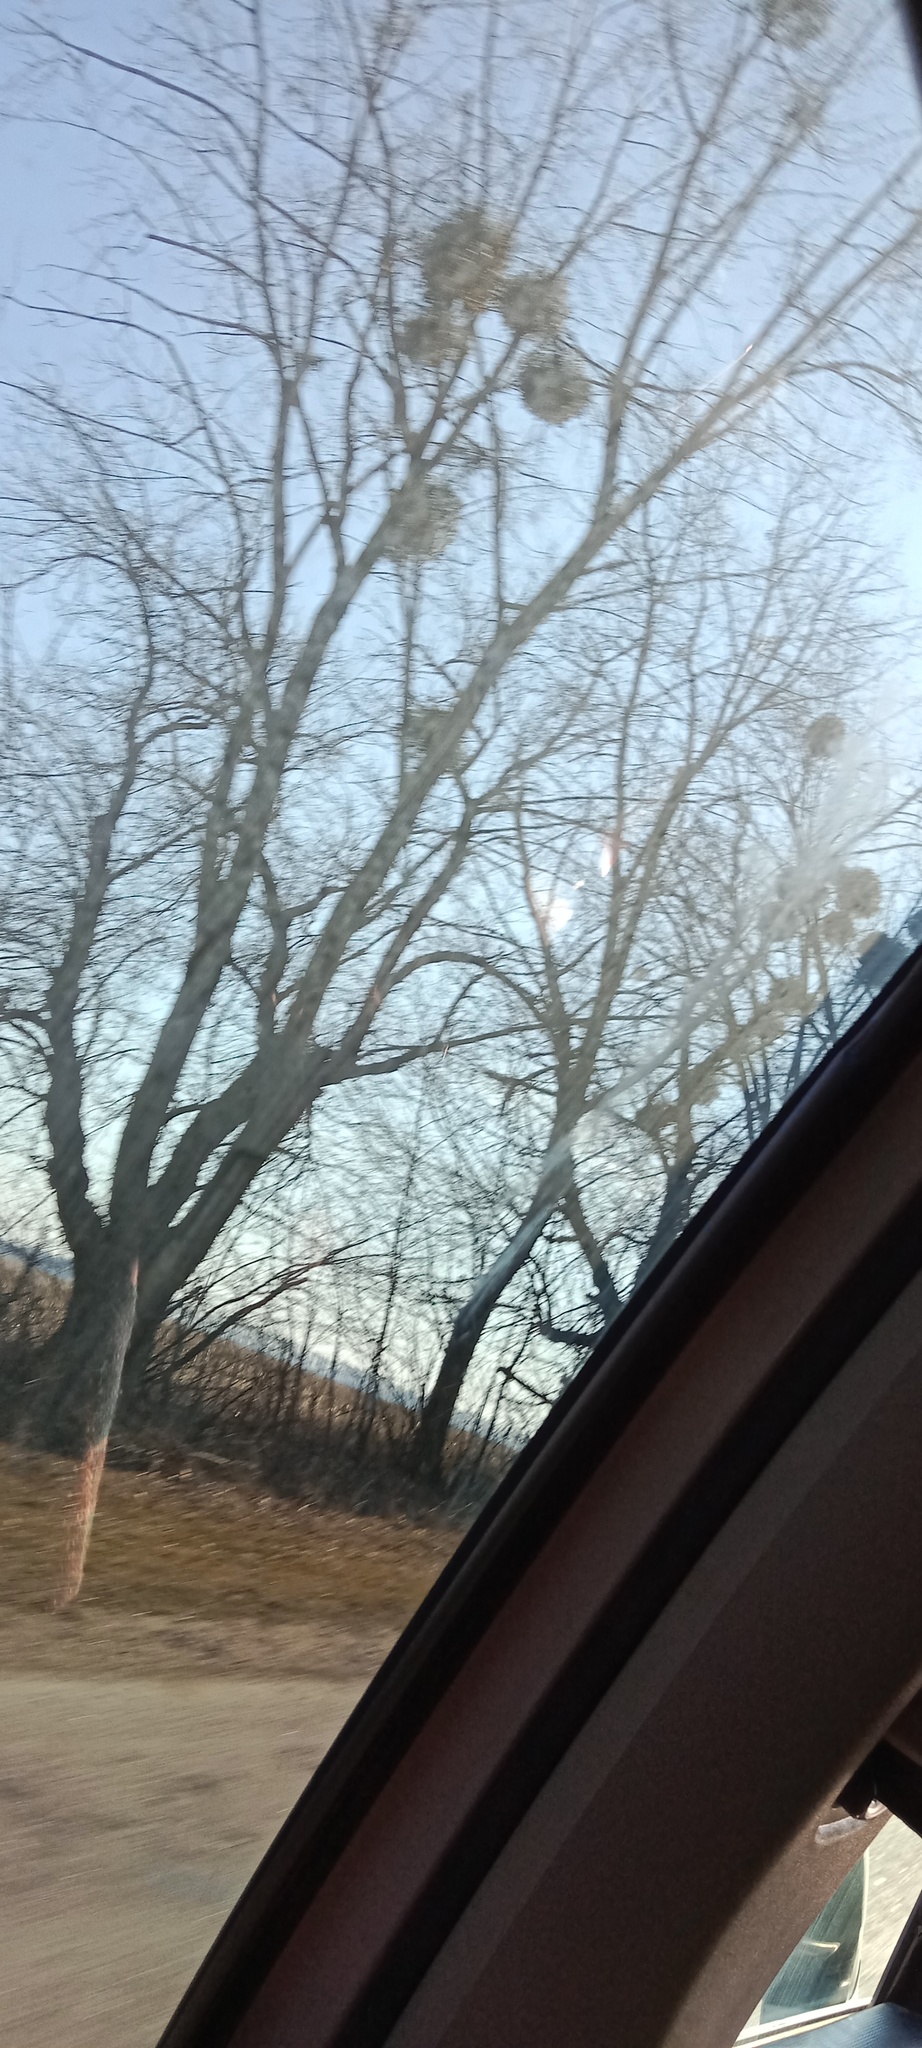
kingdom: Plantae
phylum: Tracheophyta
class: Magnoliopsida
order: Santalales
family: Viscaceae
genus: Viscum
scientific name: Viscum album
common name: Mistletoe
